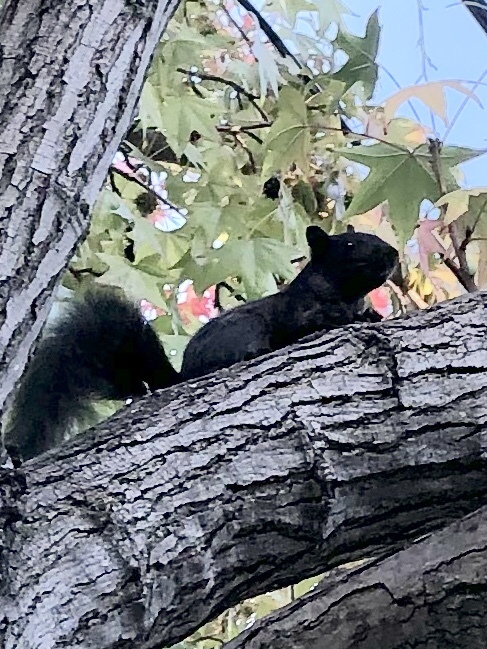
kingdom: Animalia
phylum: Chordata
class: Mammalia
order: Rodentia
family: Sciuridae
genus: Sciurus
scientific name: Sciurus carolinensis
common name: Eastern gray squirrel
